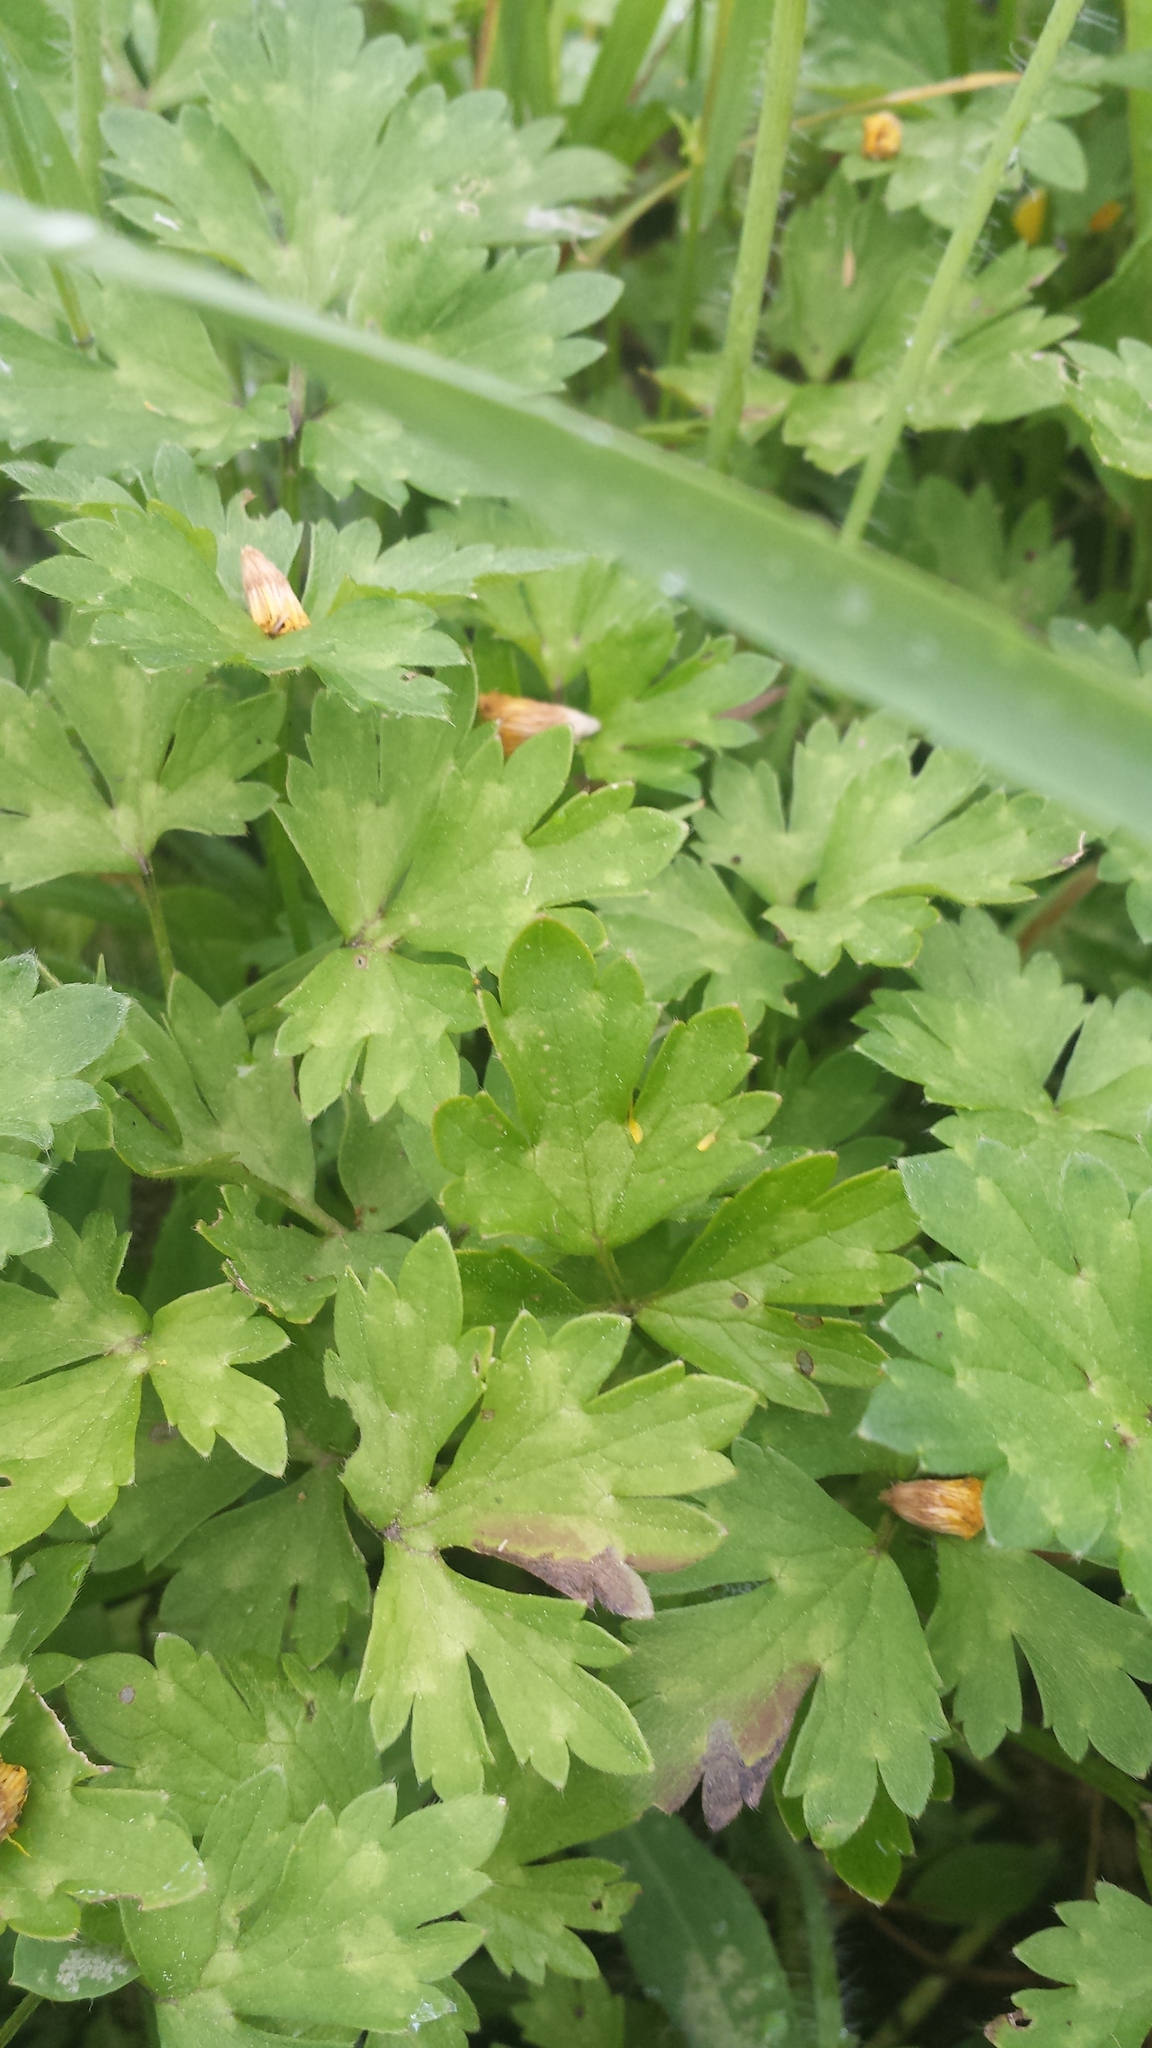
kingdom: Plantae
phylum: Tracheophyta
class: Magnoliopsida
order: Ranunculales
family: Ranunculaceae
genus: Ranunculus
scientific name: Ranunculus repens
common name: Creeping buttercup
